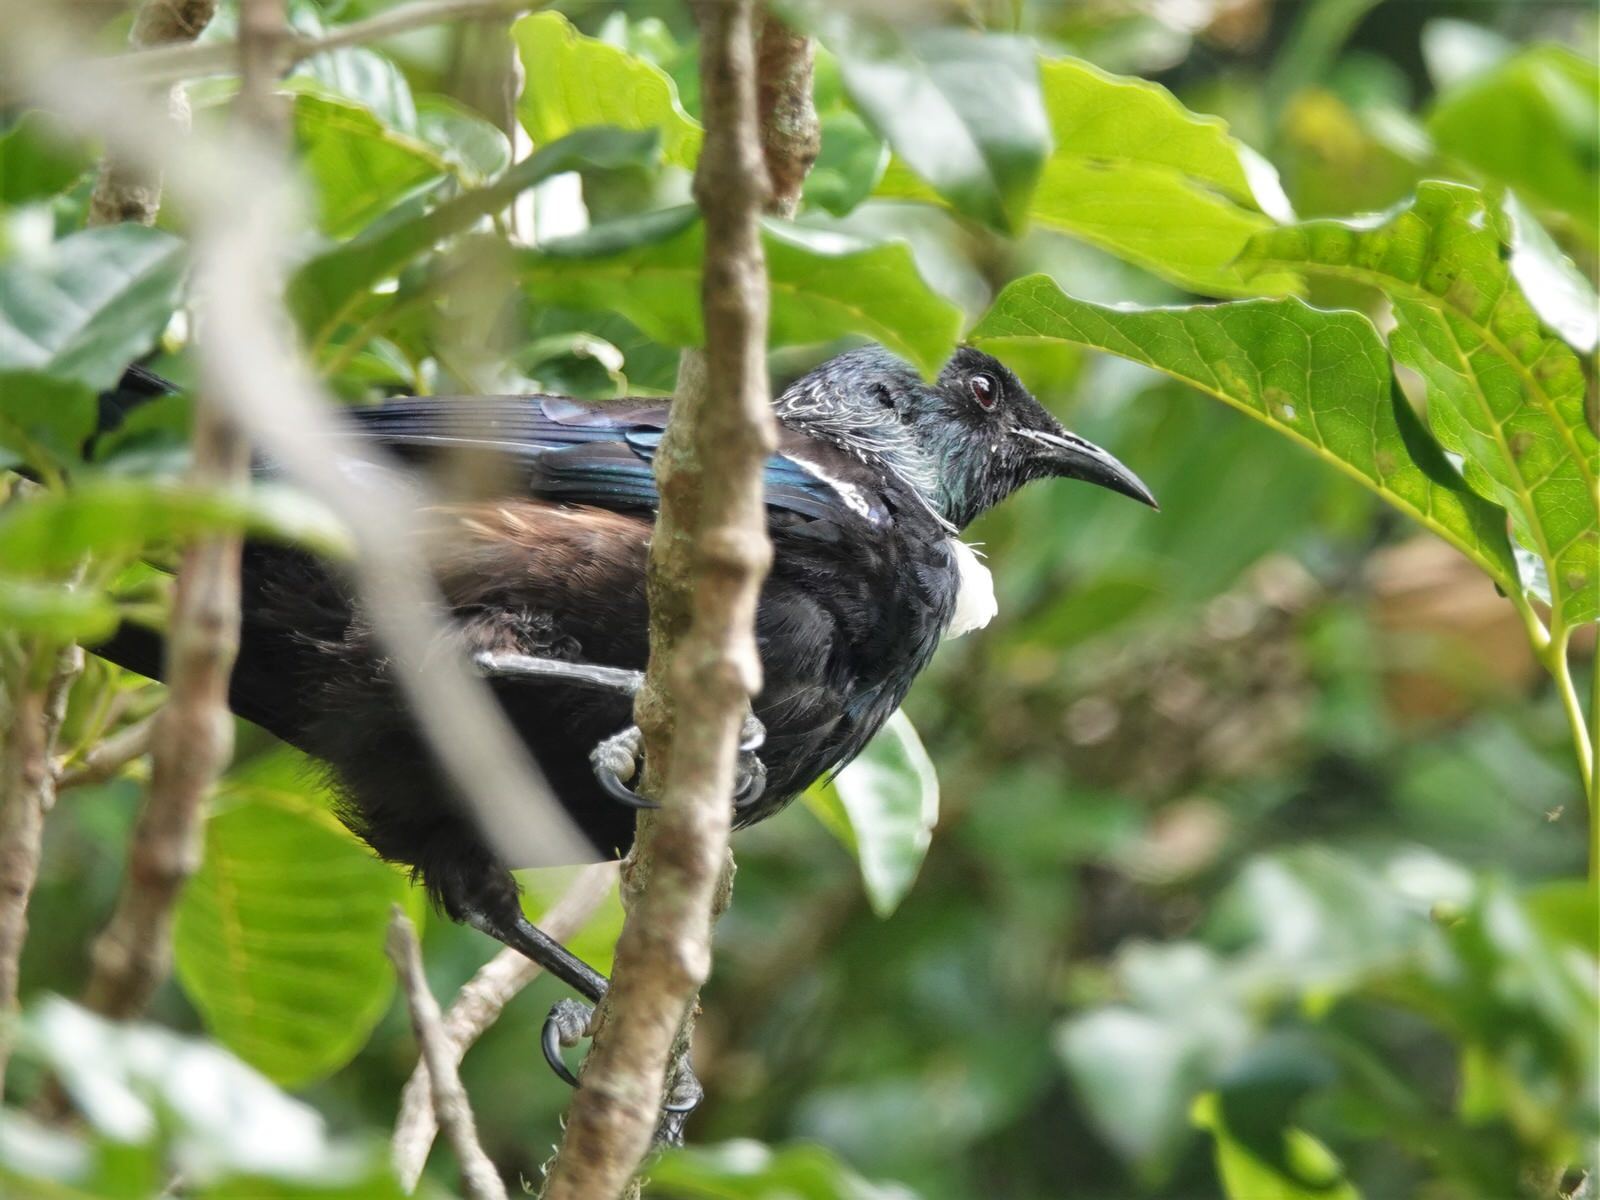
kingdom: Animalia
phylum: Chordata
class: Aves
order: Passeriformes
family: Meliphagidae
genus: Prosthemadera
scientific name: Prosthemadera novaeseelandiae
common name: Tui
